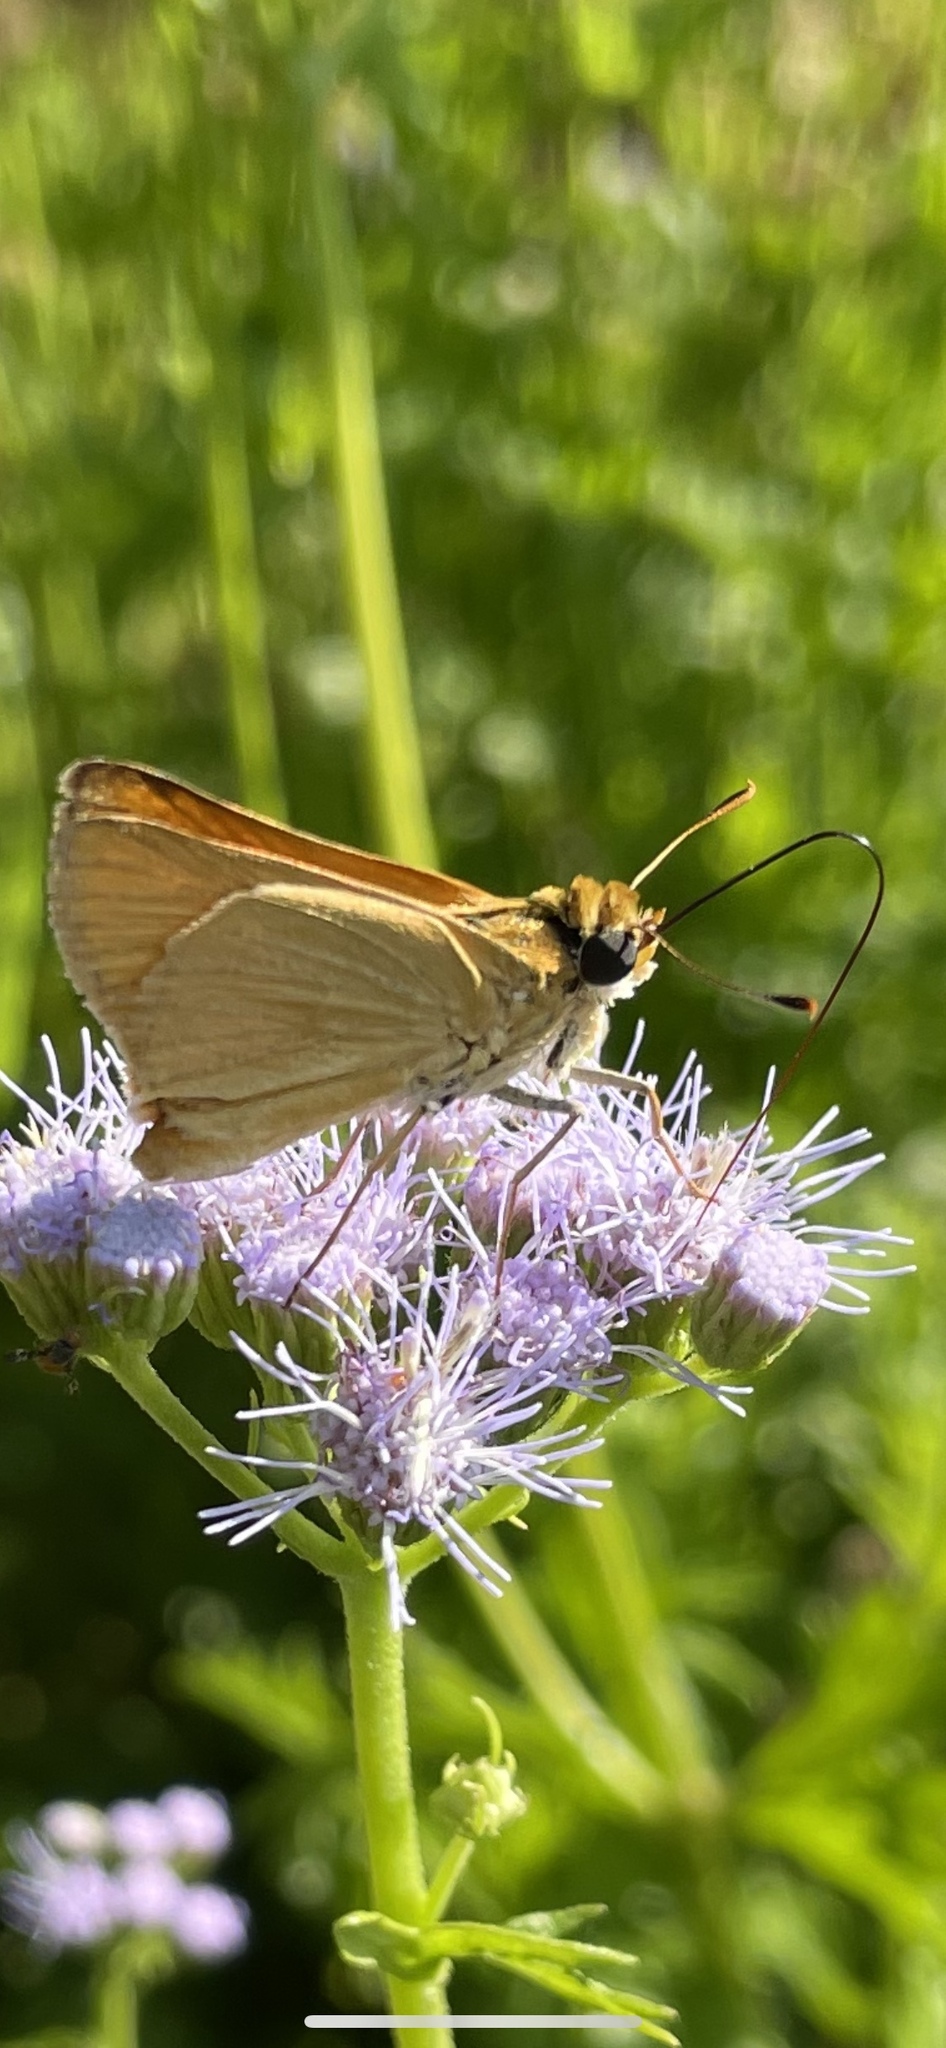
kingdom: Animalia
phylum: Arthropoda
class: Insecta
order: Lepidoptera
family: Hesperiidae
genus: Atrytone
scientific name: Atrytone arogos
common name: Arogos skipper
